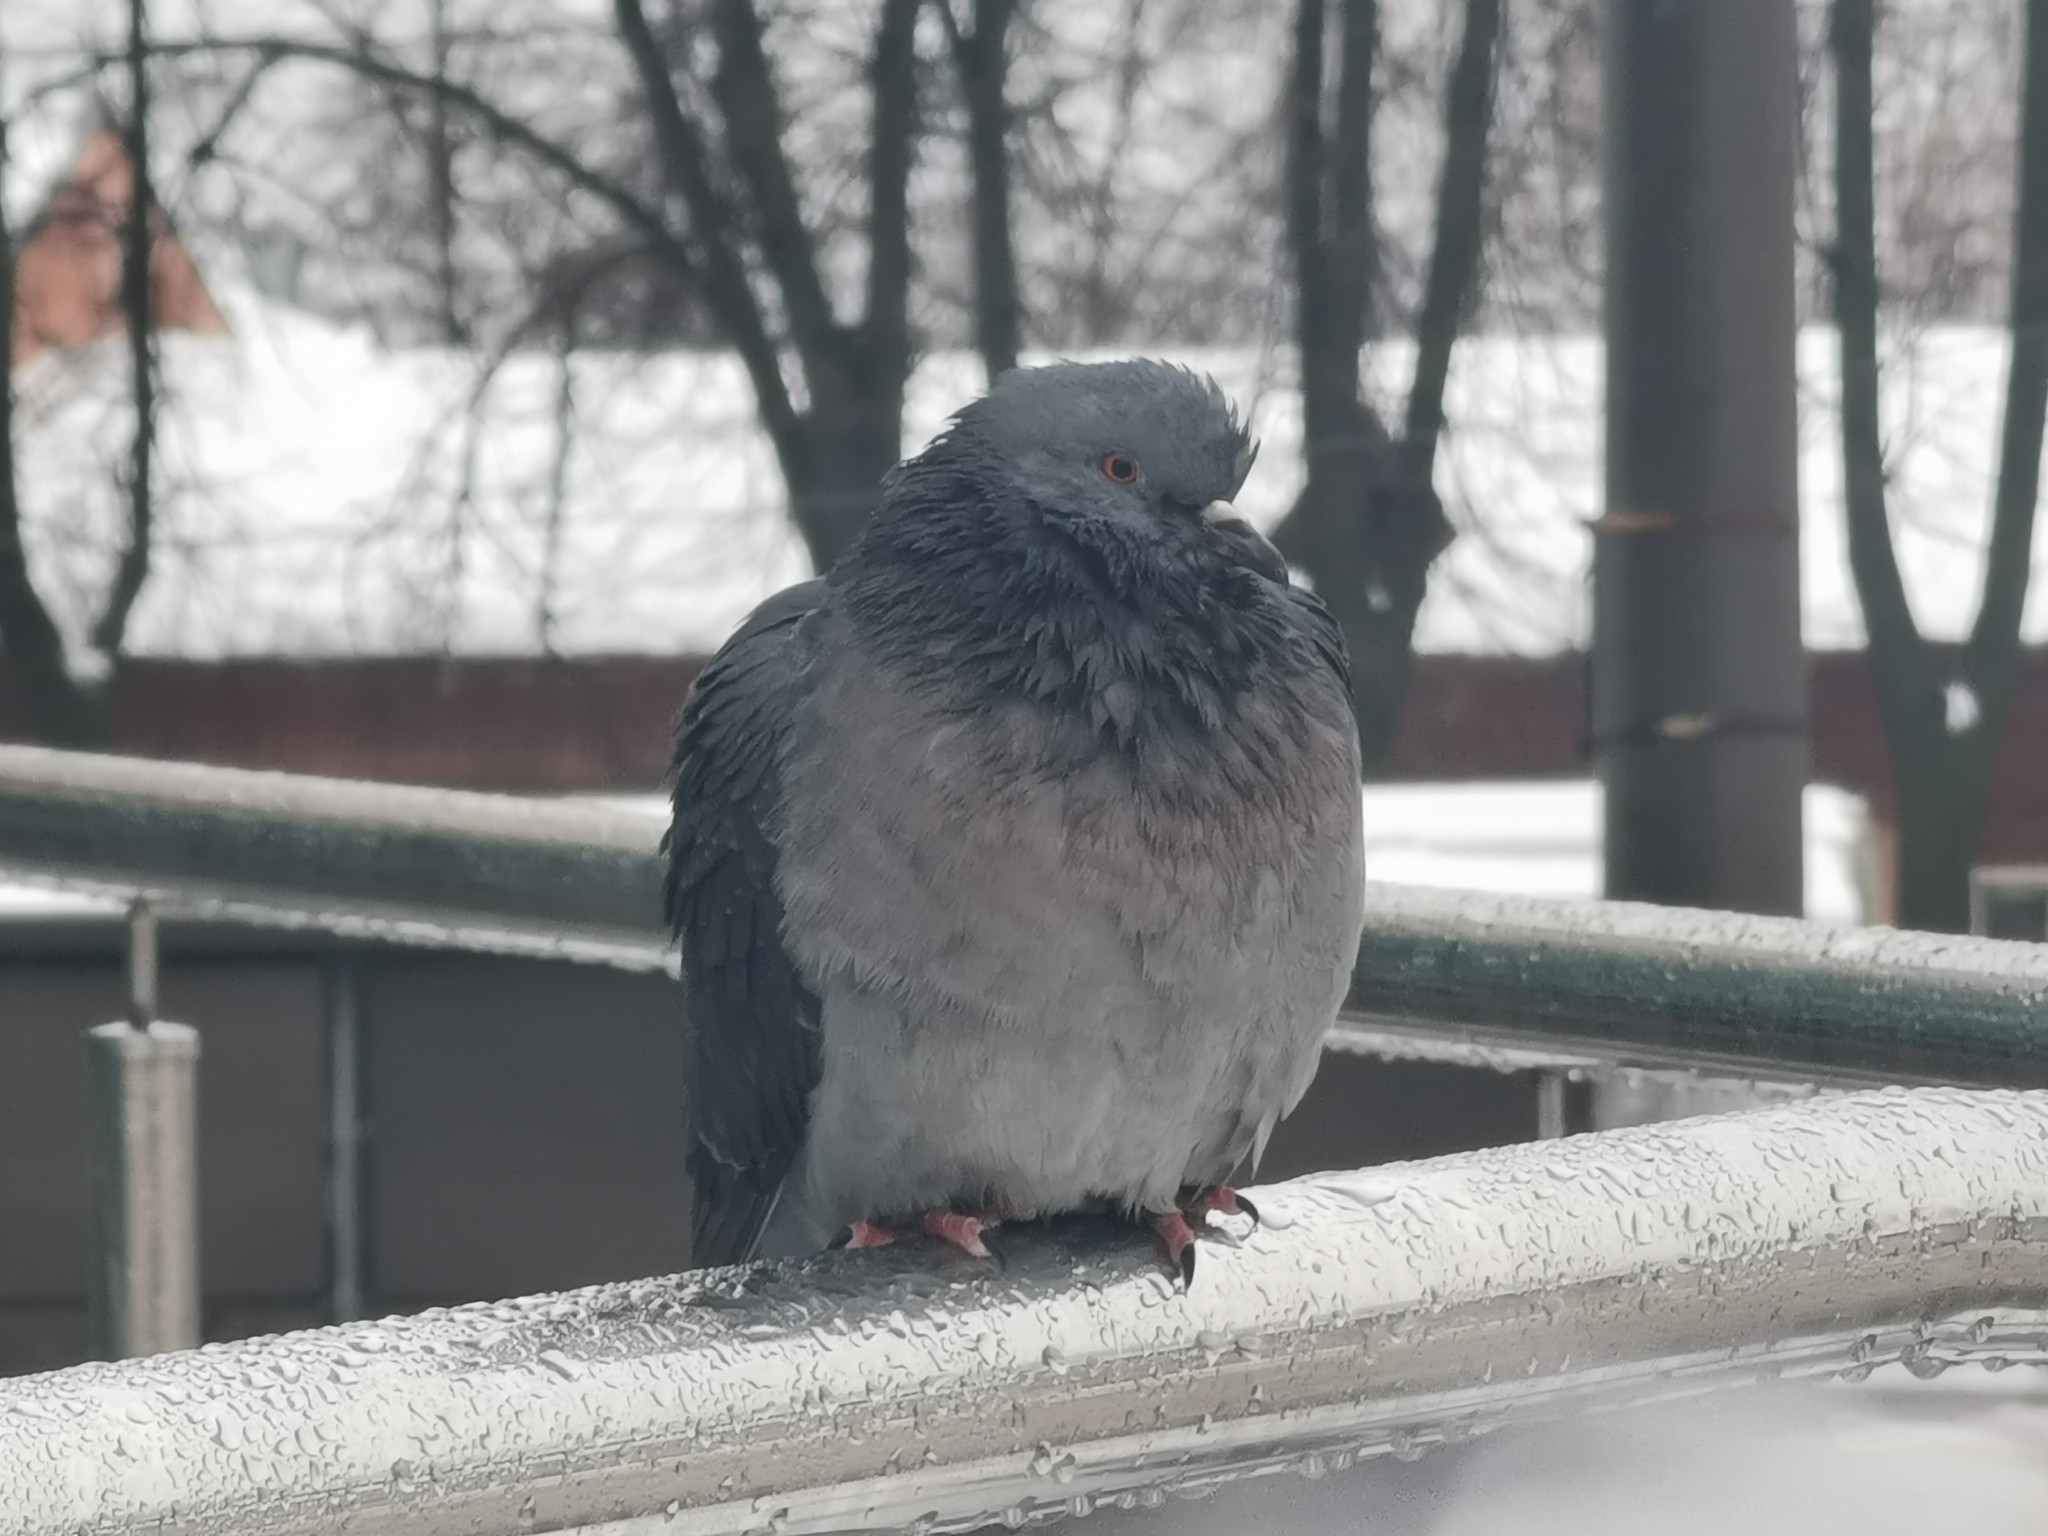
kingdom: Animalia
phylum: Chordata
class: Aves
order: Columbiformes
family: Columbidae
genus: Columba
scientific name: Columba livia
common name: Rock pigeon
